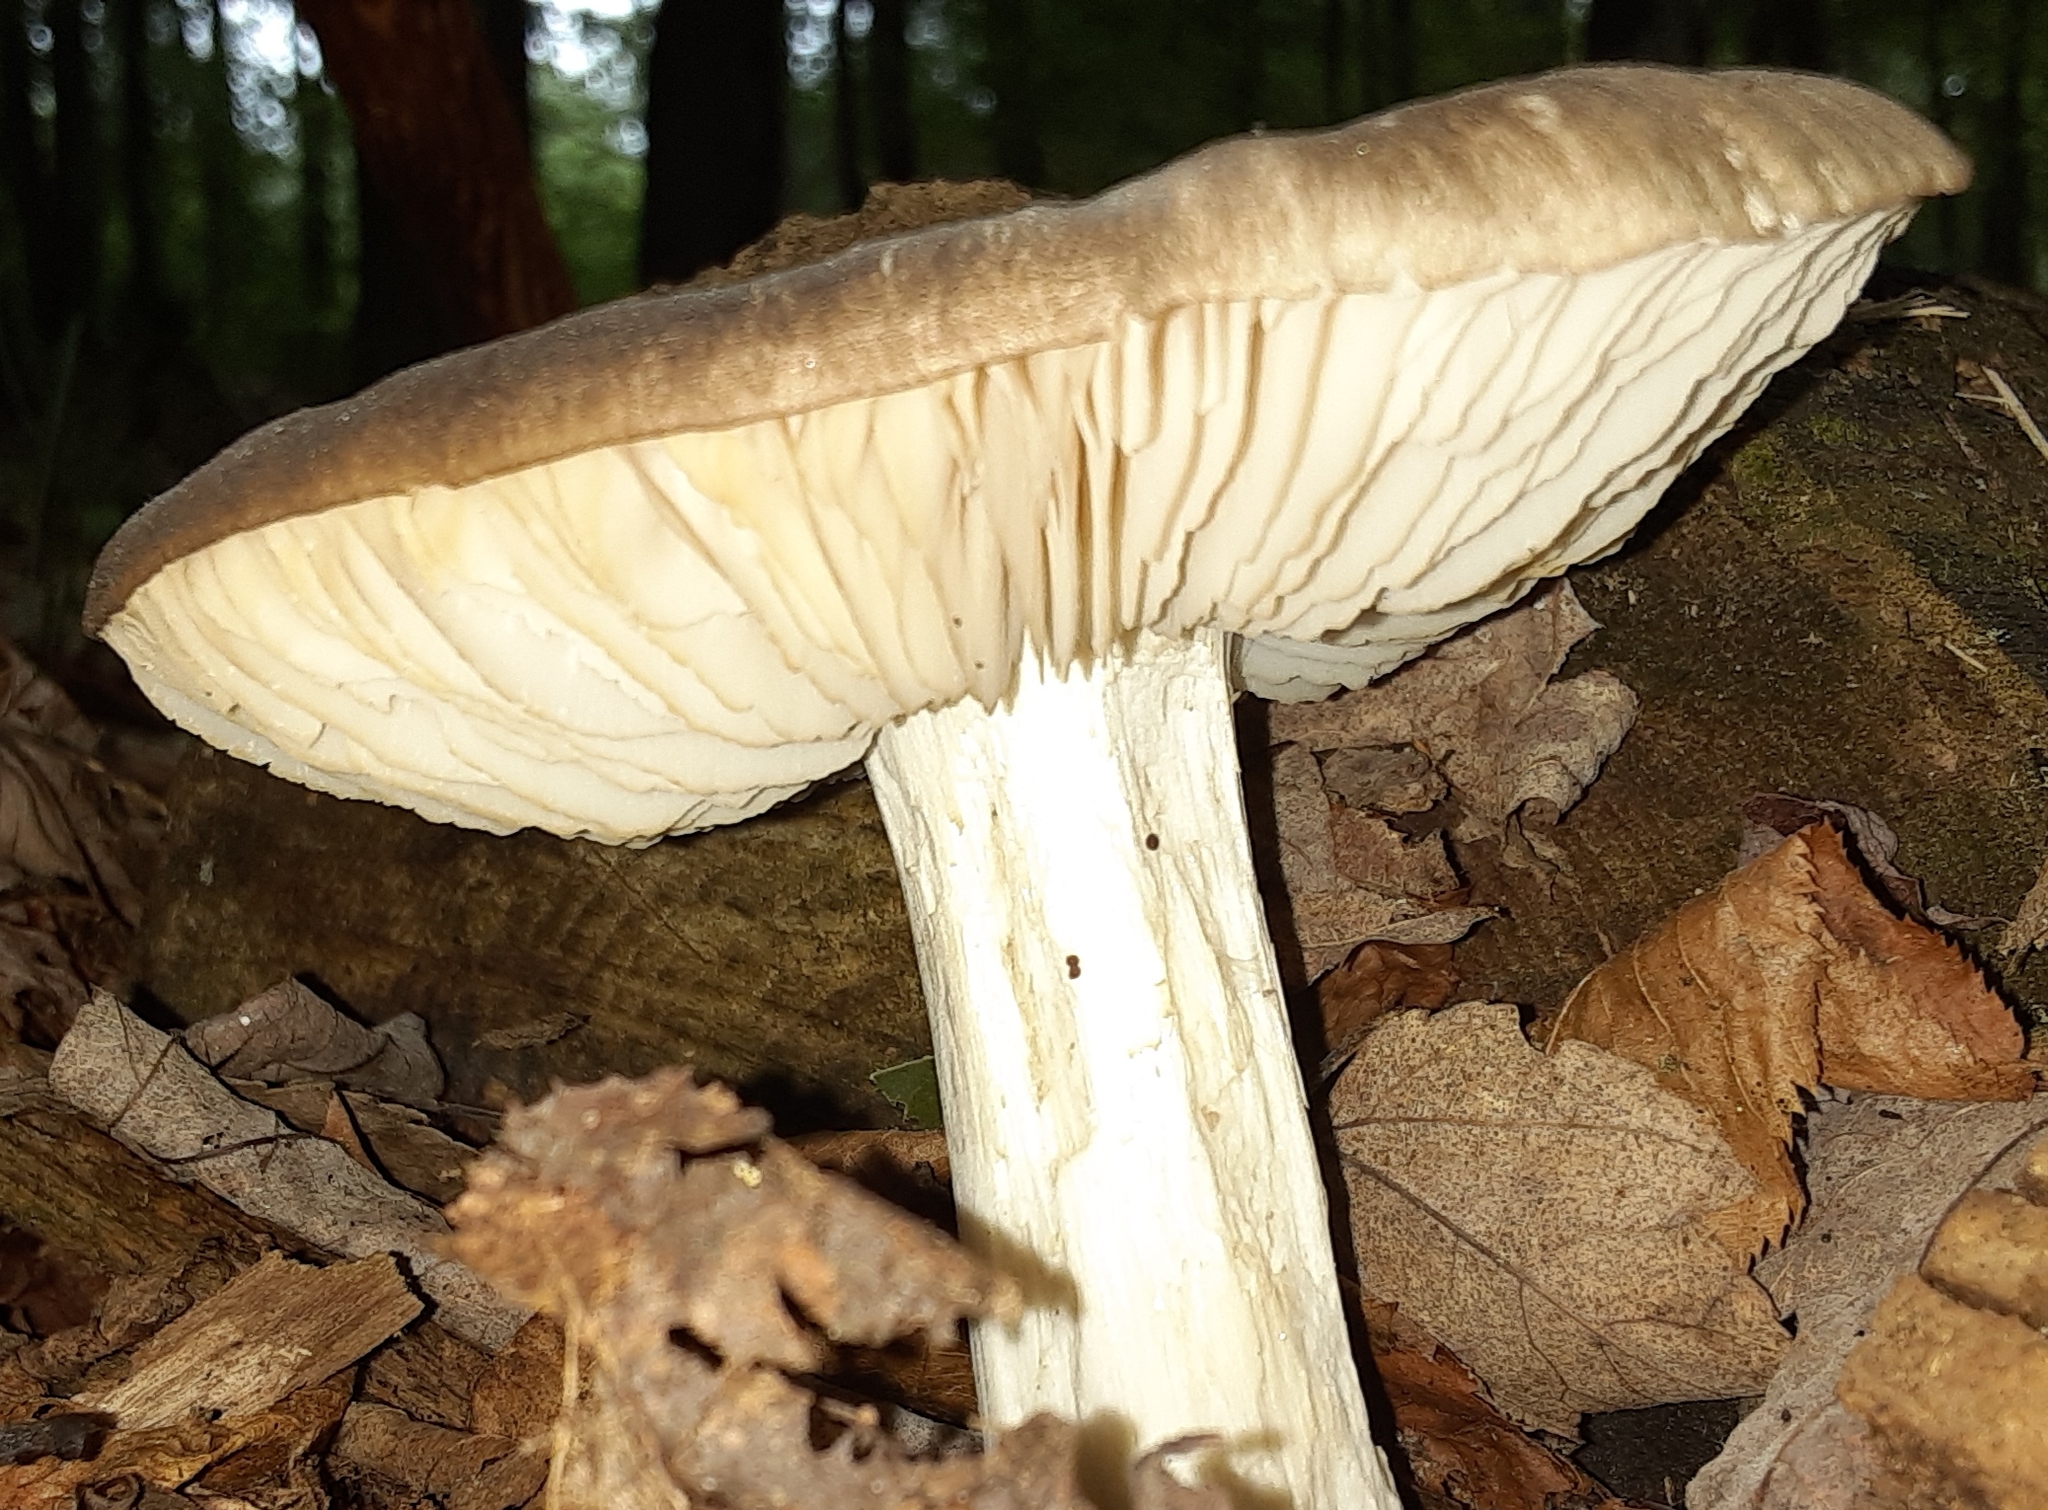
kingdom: Fungi
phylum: Basidiomycota
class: Agaricomycetes
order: Agaricales
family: Tricholomataceae
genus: Megacollybia
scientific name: Megacollybia rodmanii
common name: Eastern american platterful mushroom
